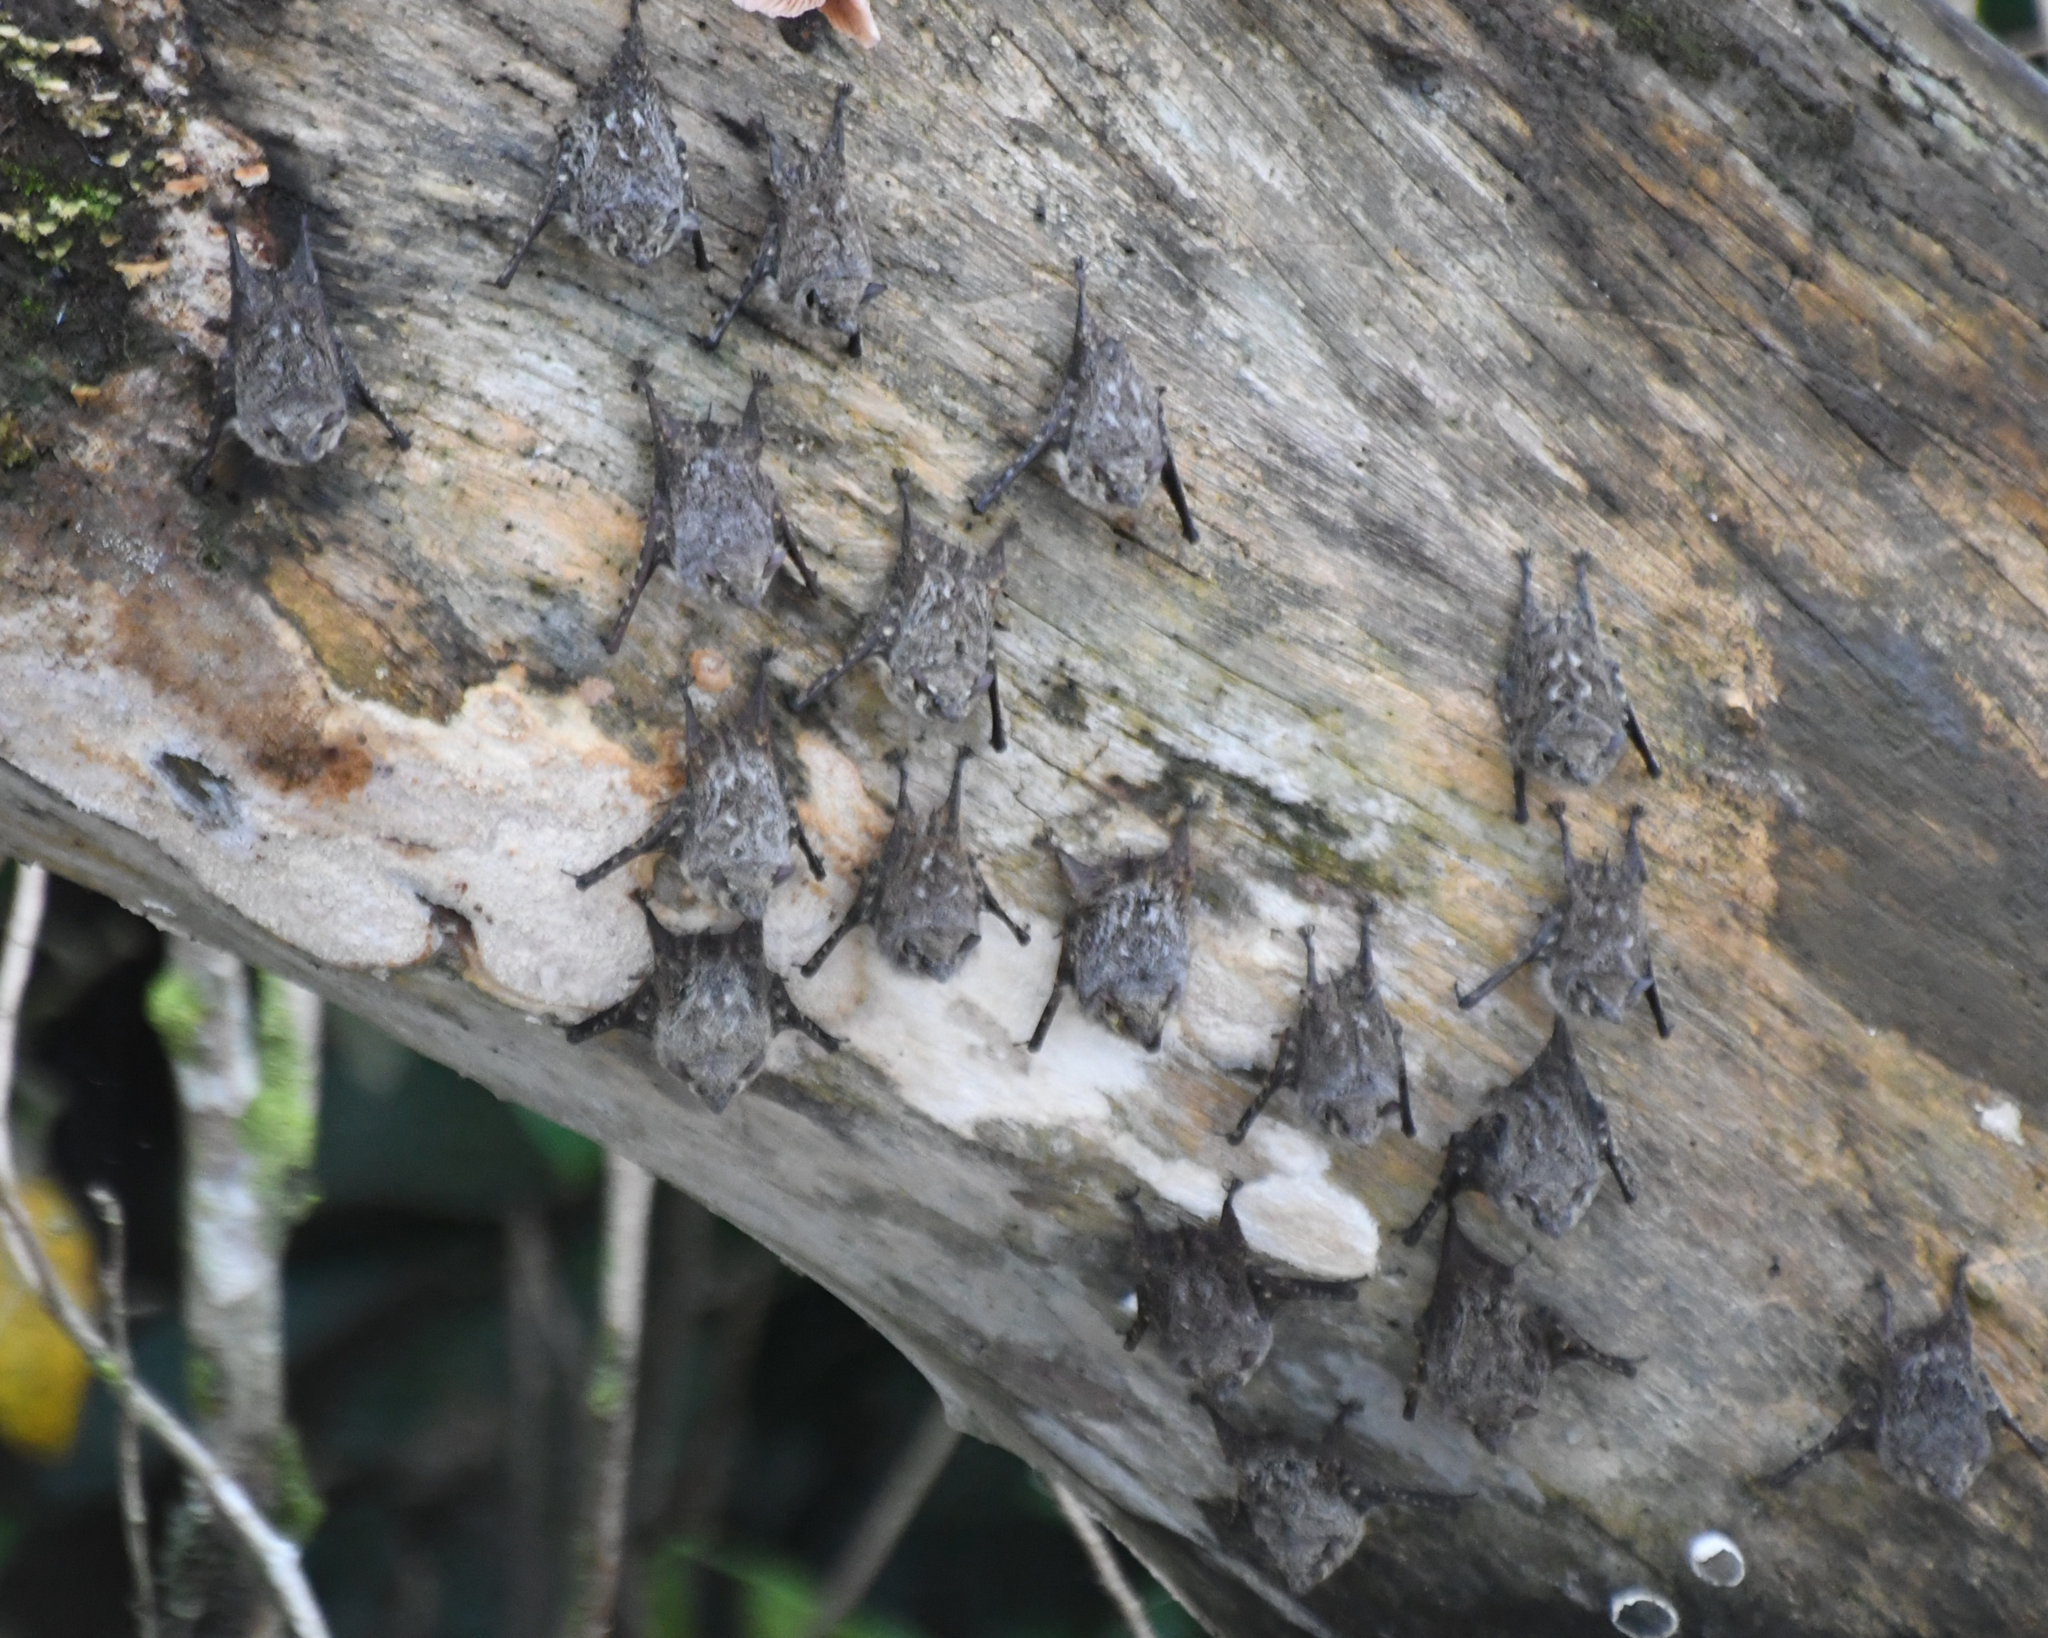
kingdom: Animalia
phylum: Chordata
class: Mammalia
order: Chiroptera
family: Emballonuridae
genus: Rhynchonycteris
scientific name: Rhynchonycteris naso
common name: Proboscis bat
